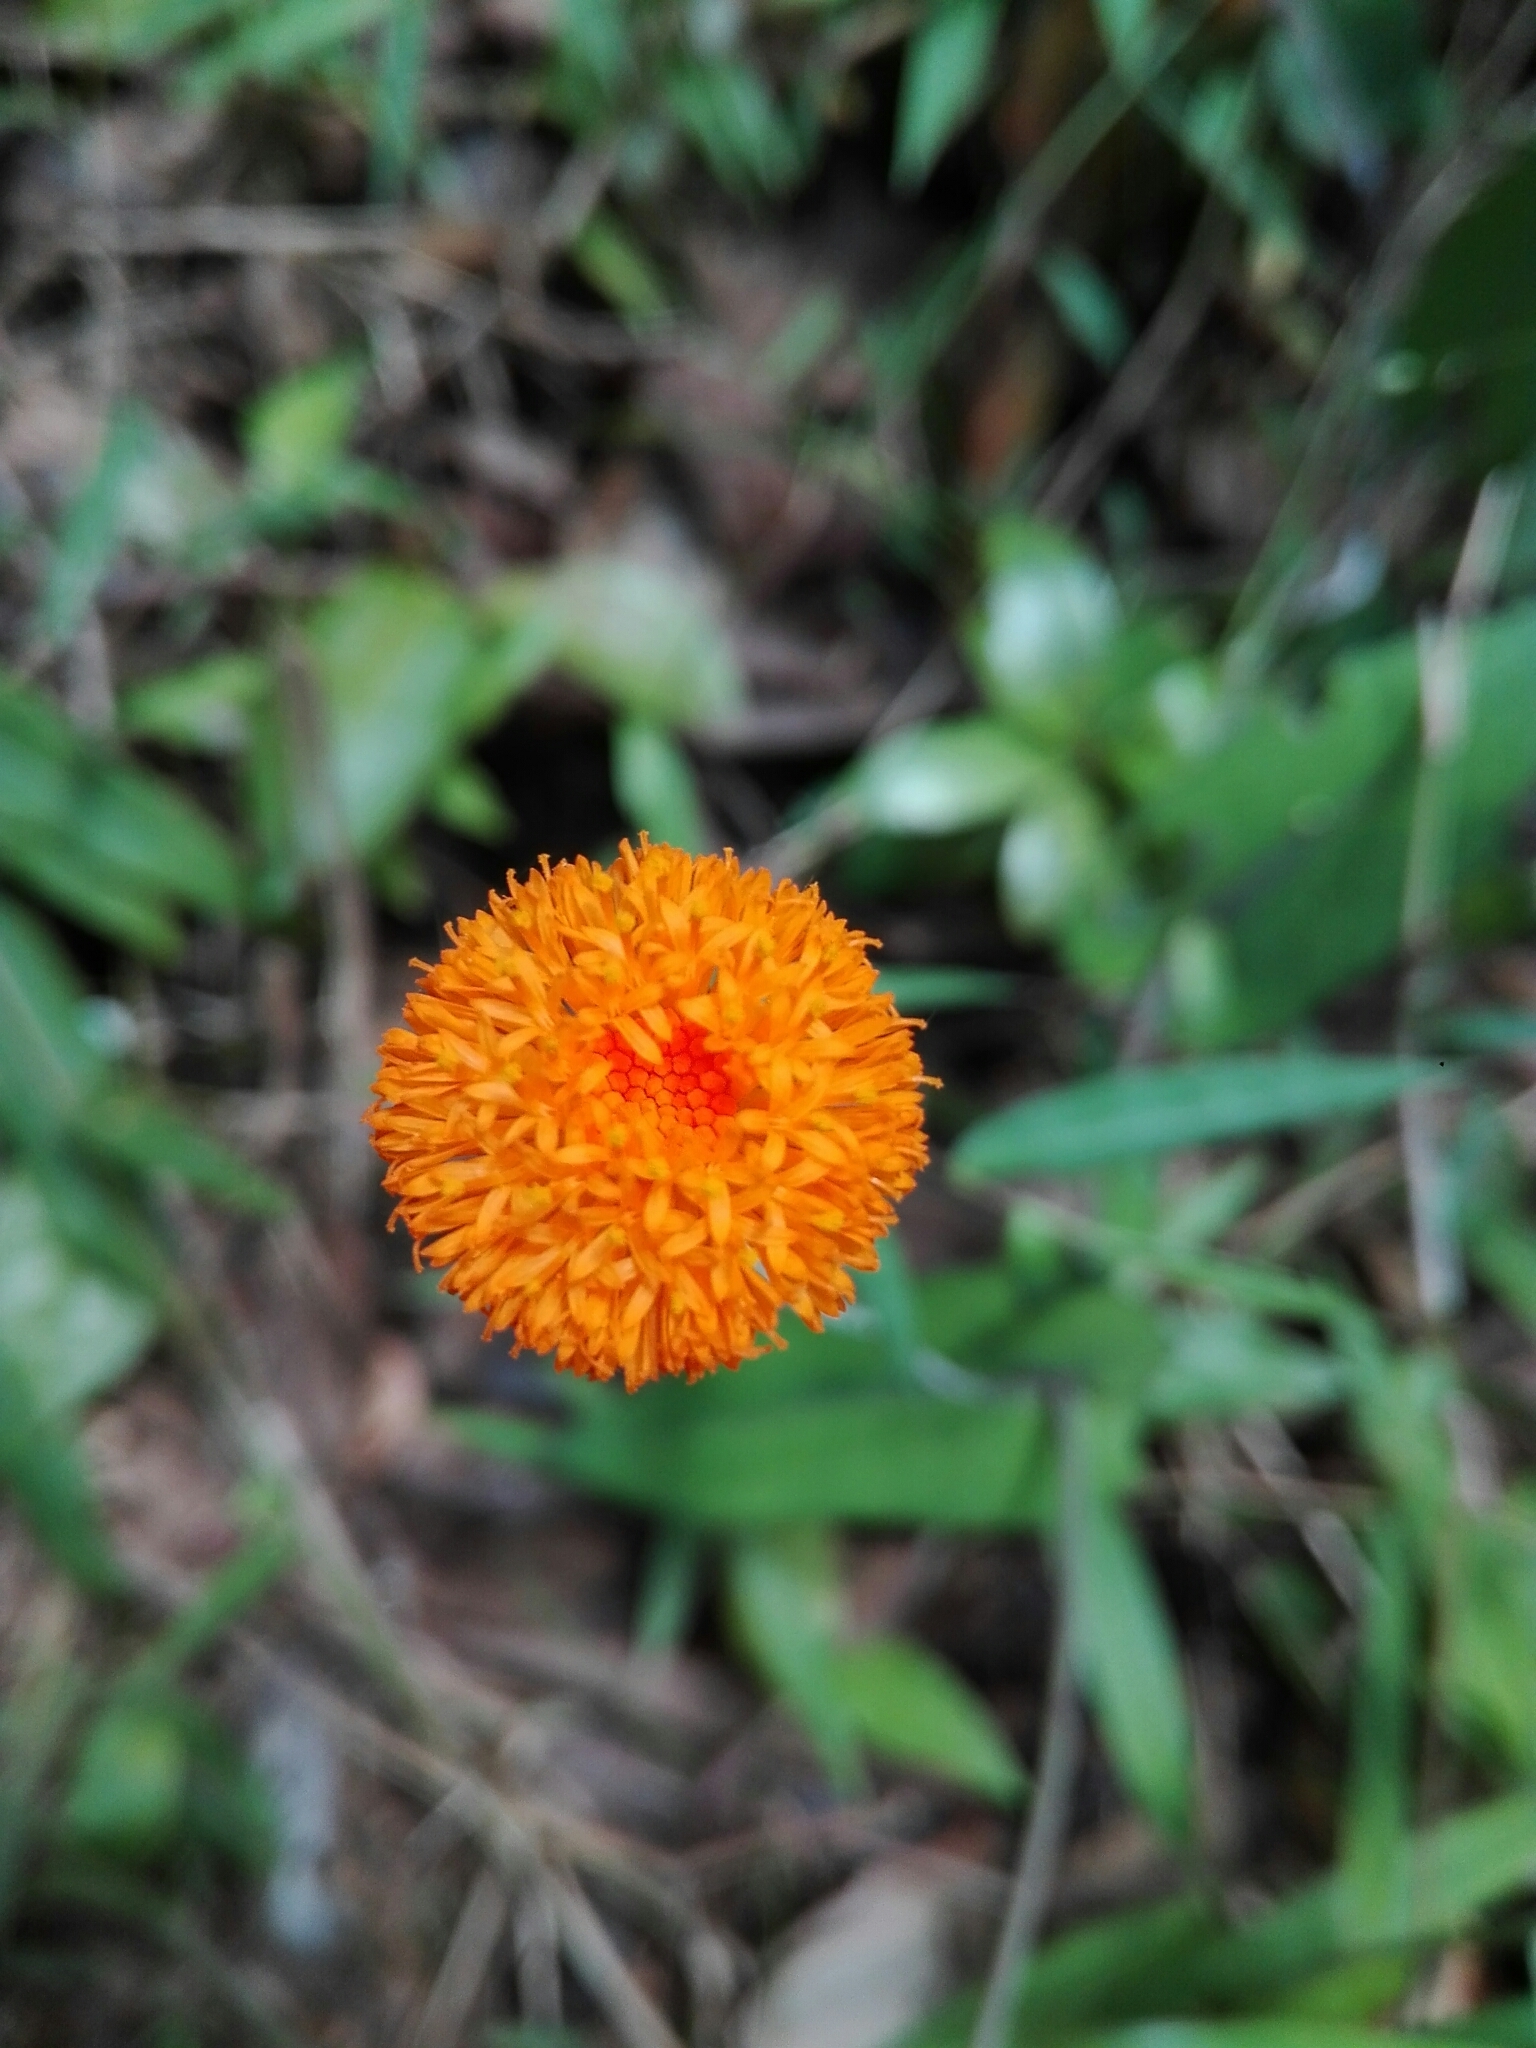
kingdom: Plantae
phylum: Tracheophyta
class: Magnoliopsida
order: Asterales
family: Asteraceae
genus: Emilia
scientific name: Emilia humifusa
